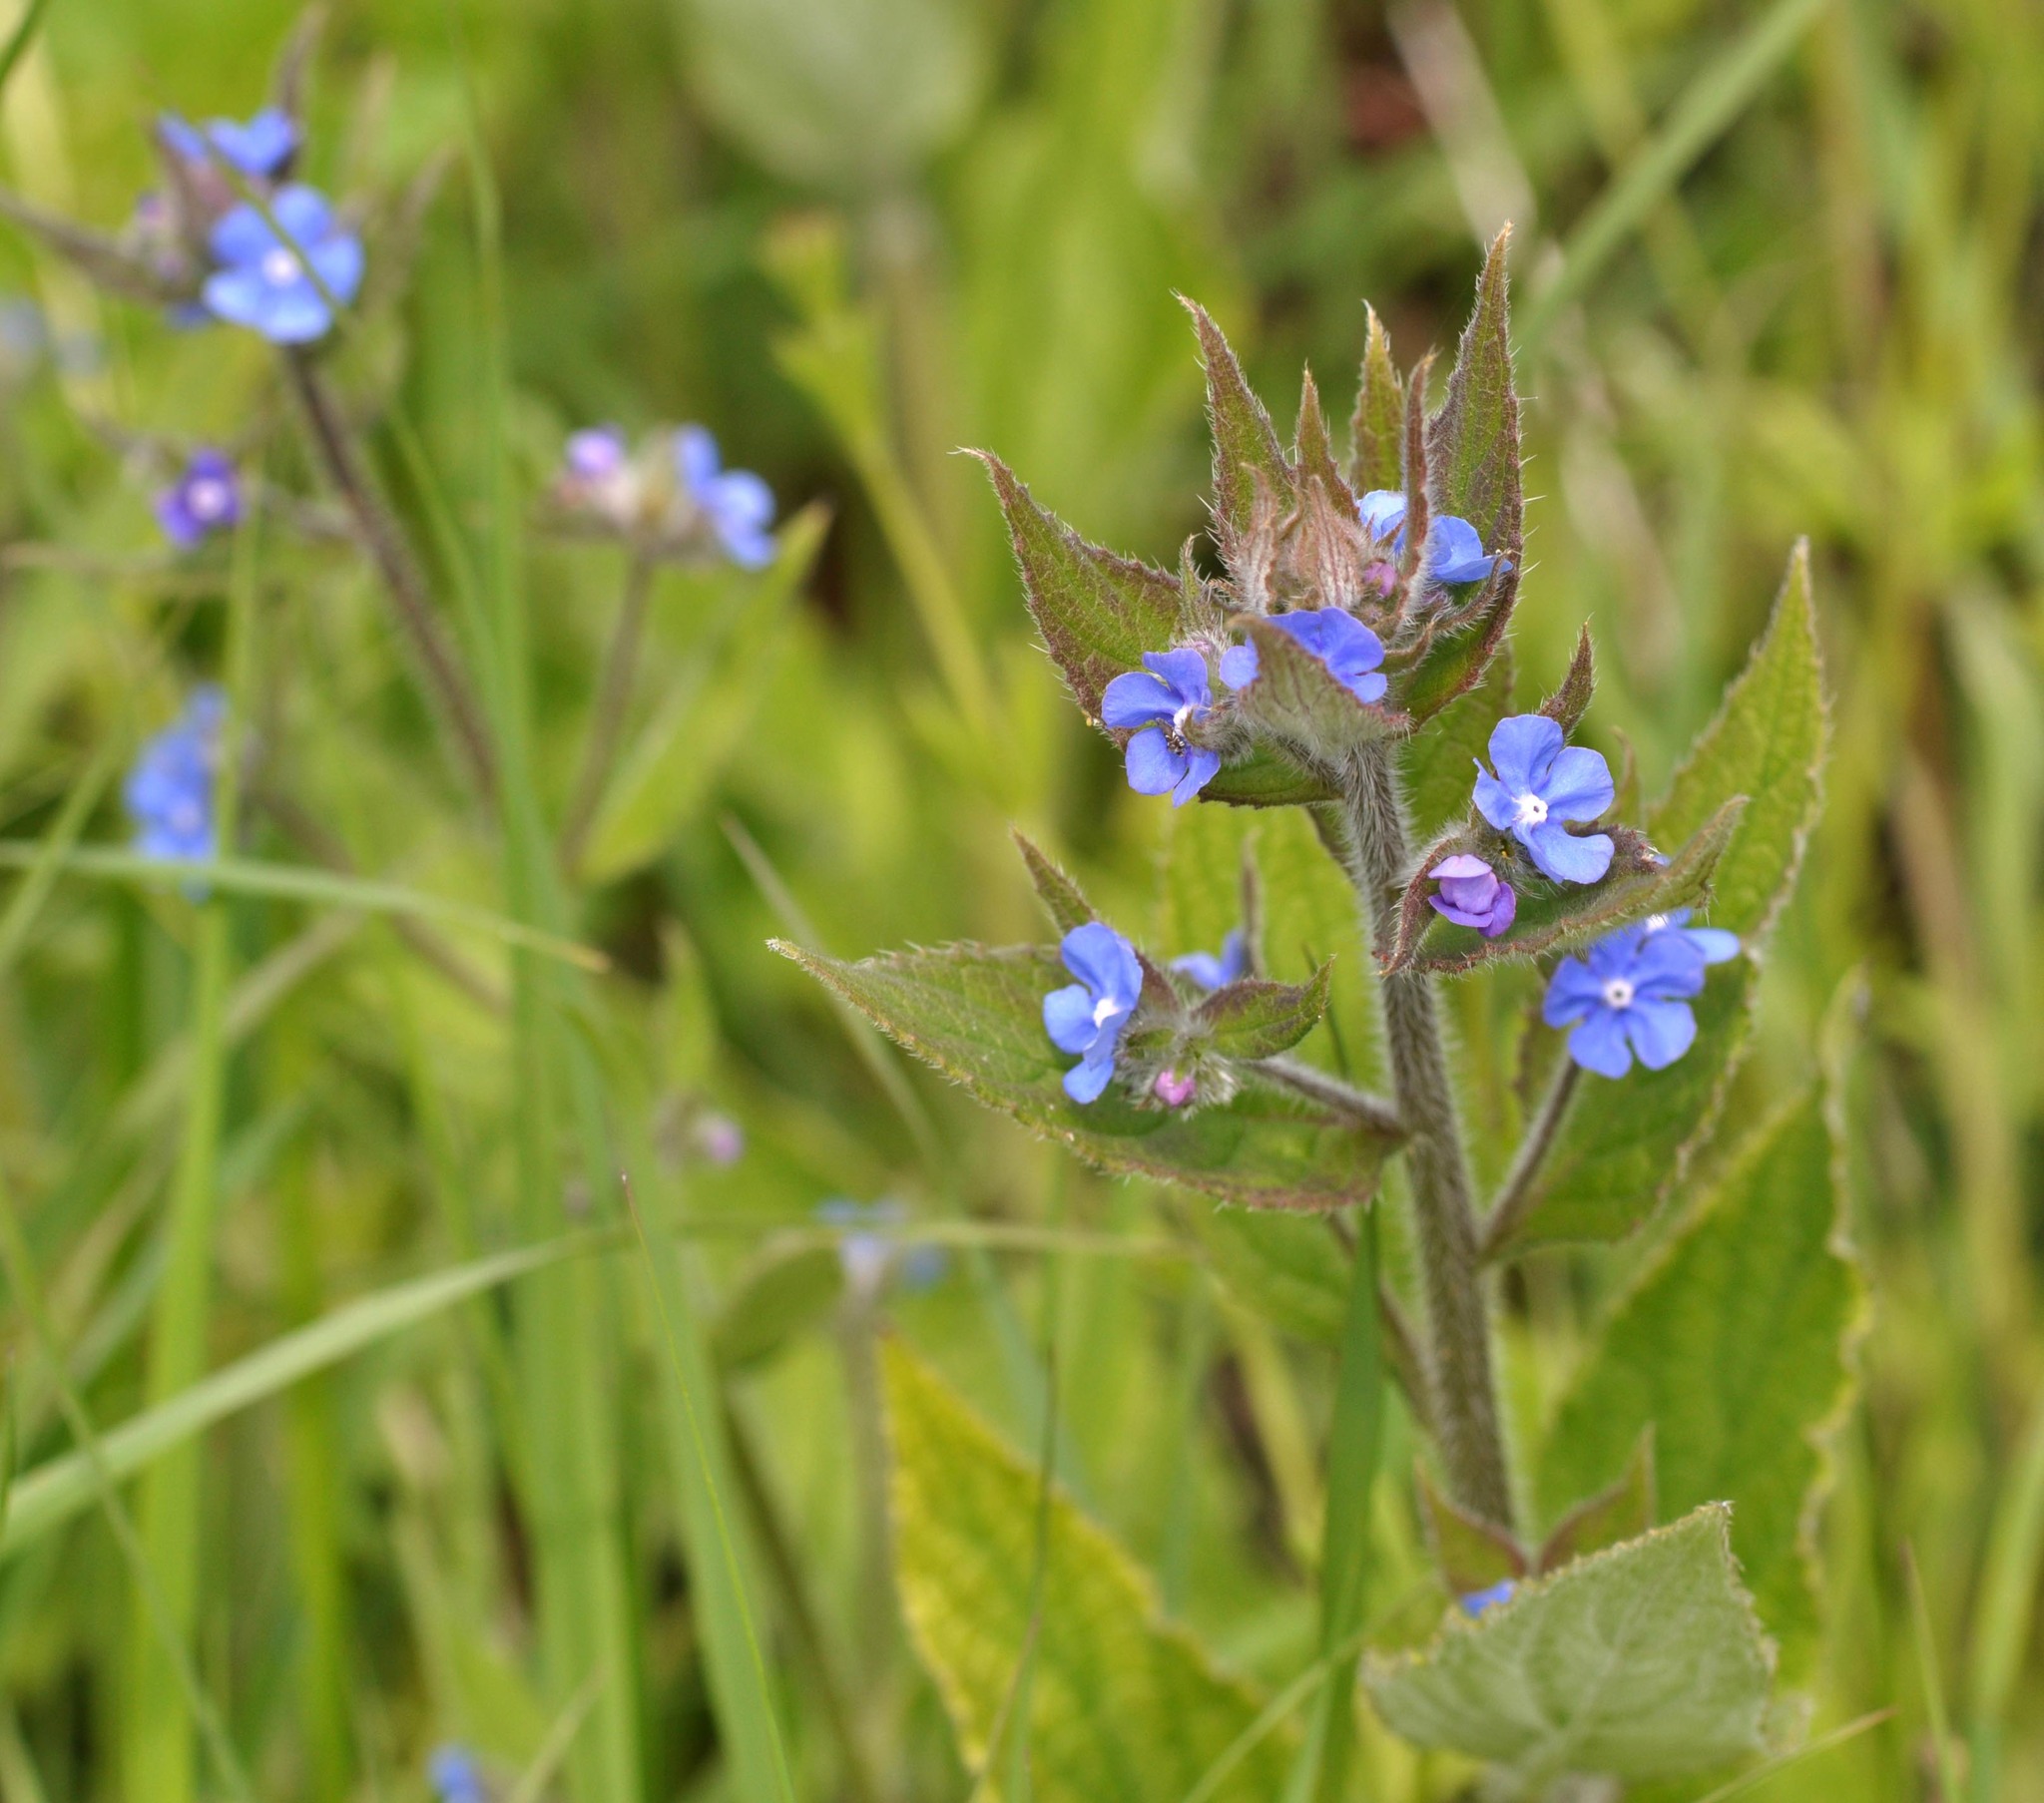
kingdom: Plantae
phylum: Tracheophyta
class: Magnoliopsida
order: Boraginales
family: Boraginaceae
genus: Pentaglottis
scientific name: Pentaglottis sempervirens
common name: Green alkanet
